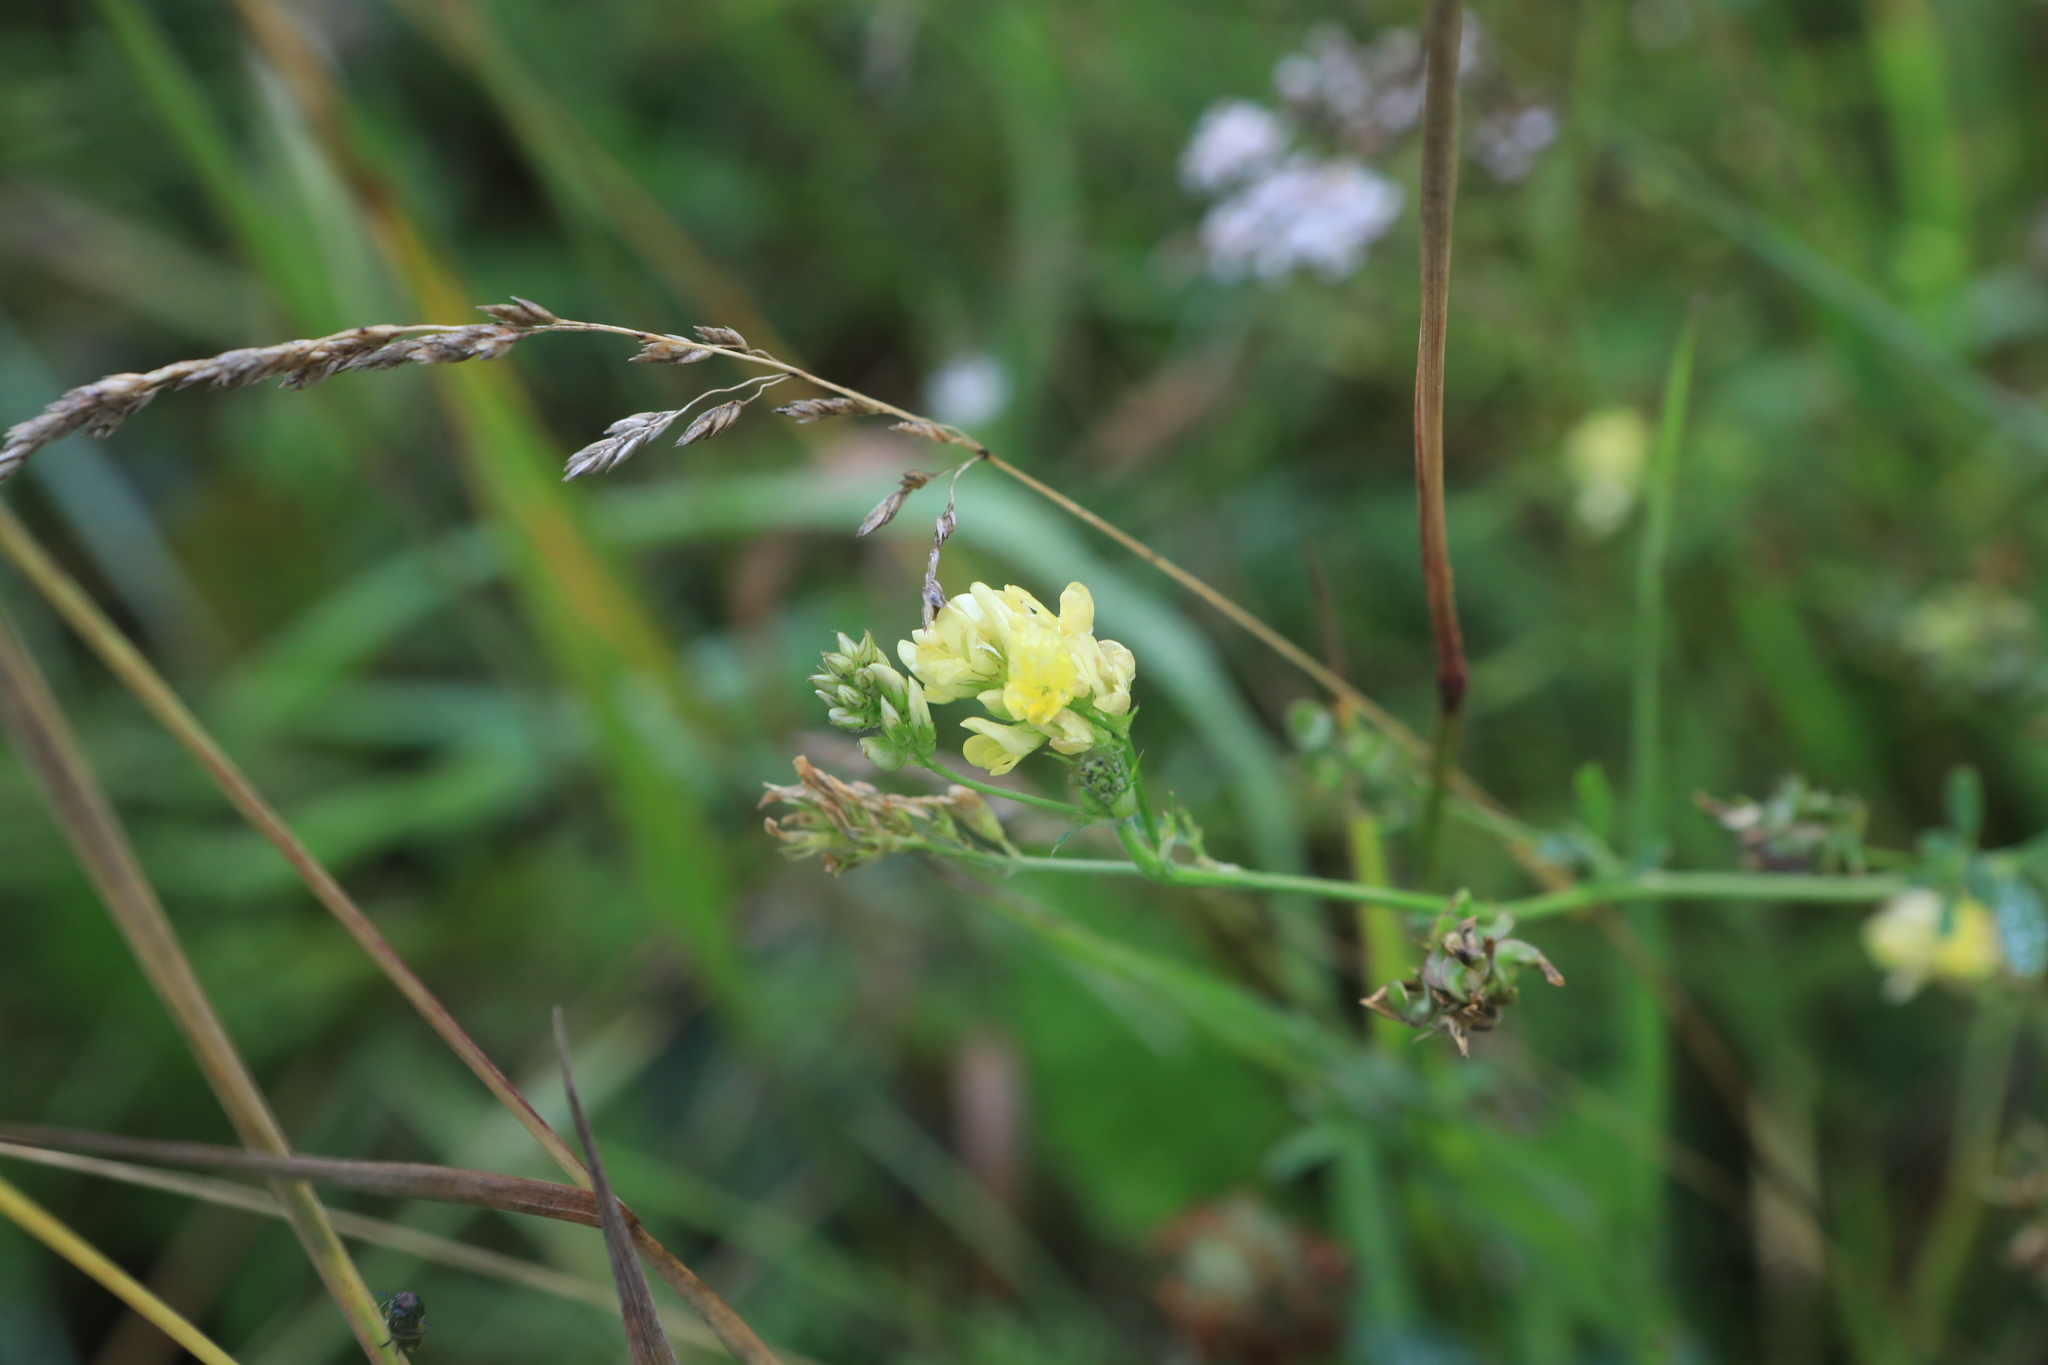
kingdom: Plantae
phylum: Tracheophyta
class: Magnoliopsida
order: Fabales
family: Fabaceae
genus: Medicago
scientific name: Medicago varia
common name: Sand lucerne
